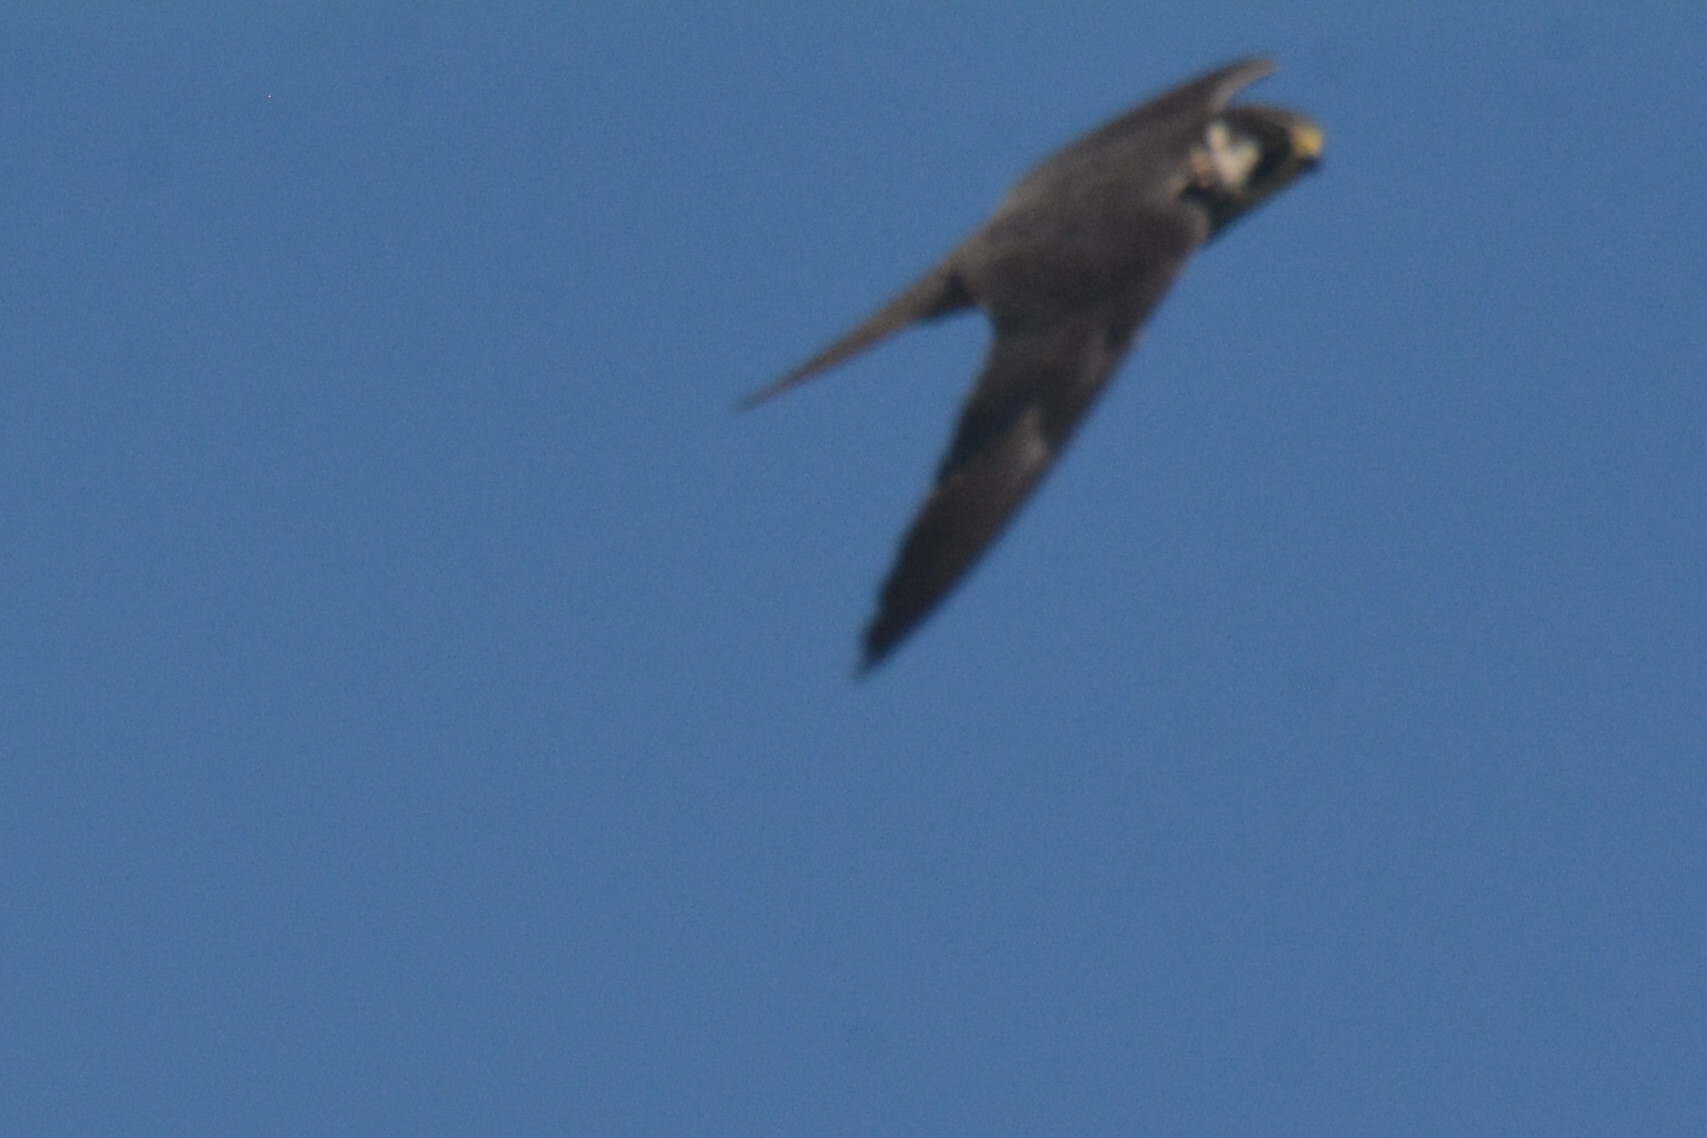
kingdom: Animalia
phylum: Chordata
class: Aves
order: Falconiformes
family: Falconidae
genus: Falco
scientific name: Falco subbuteo
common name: Eurasian hobby
